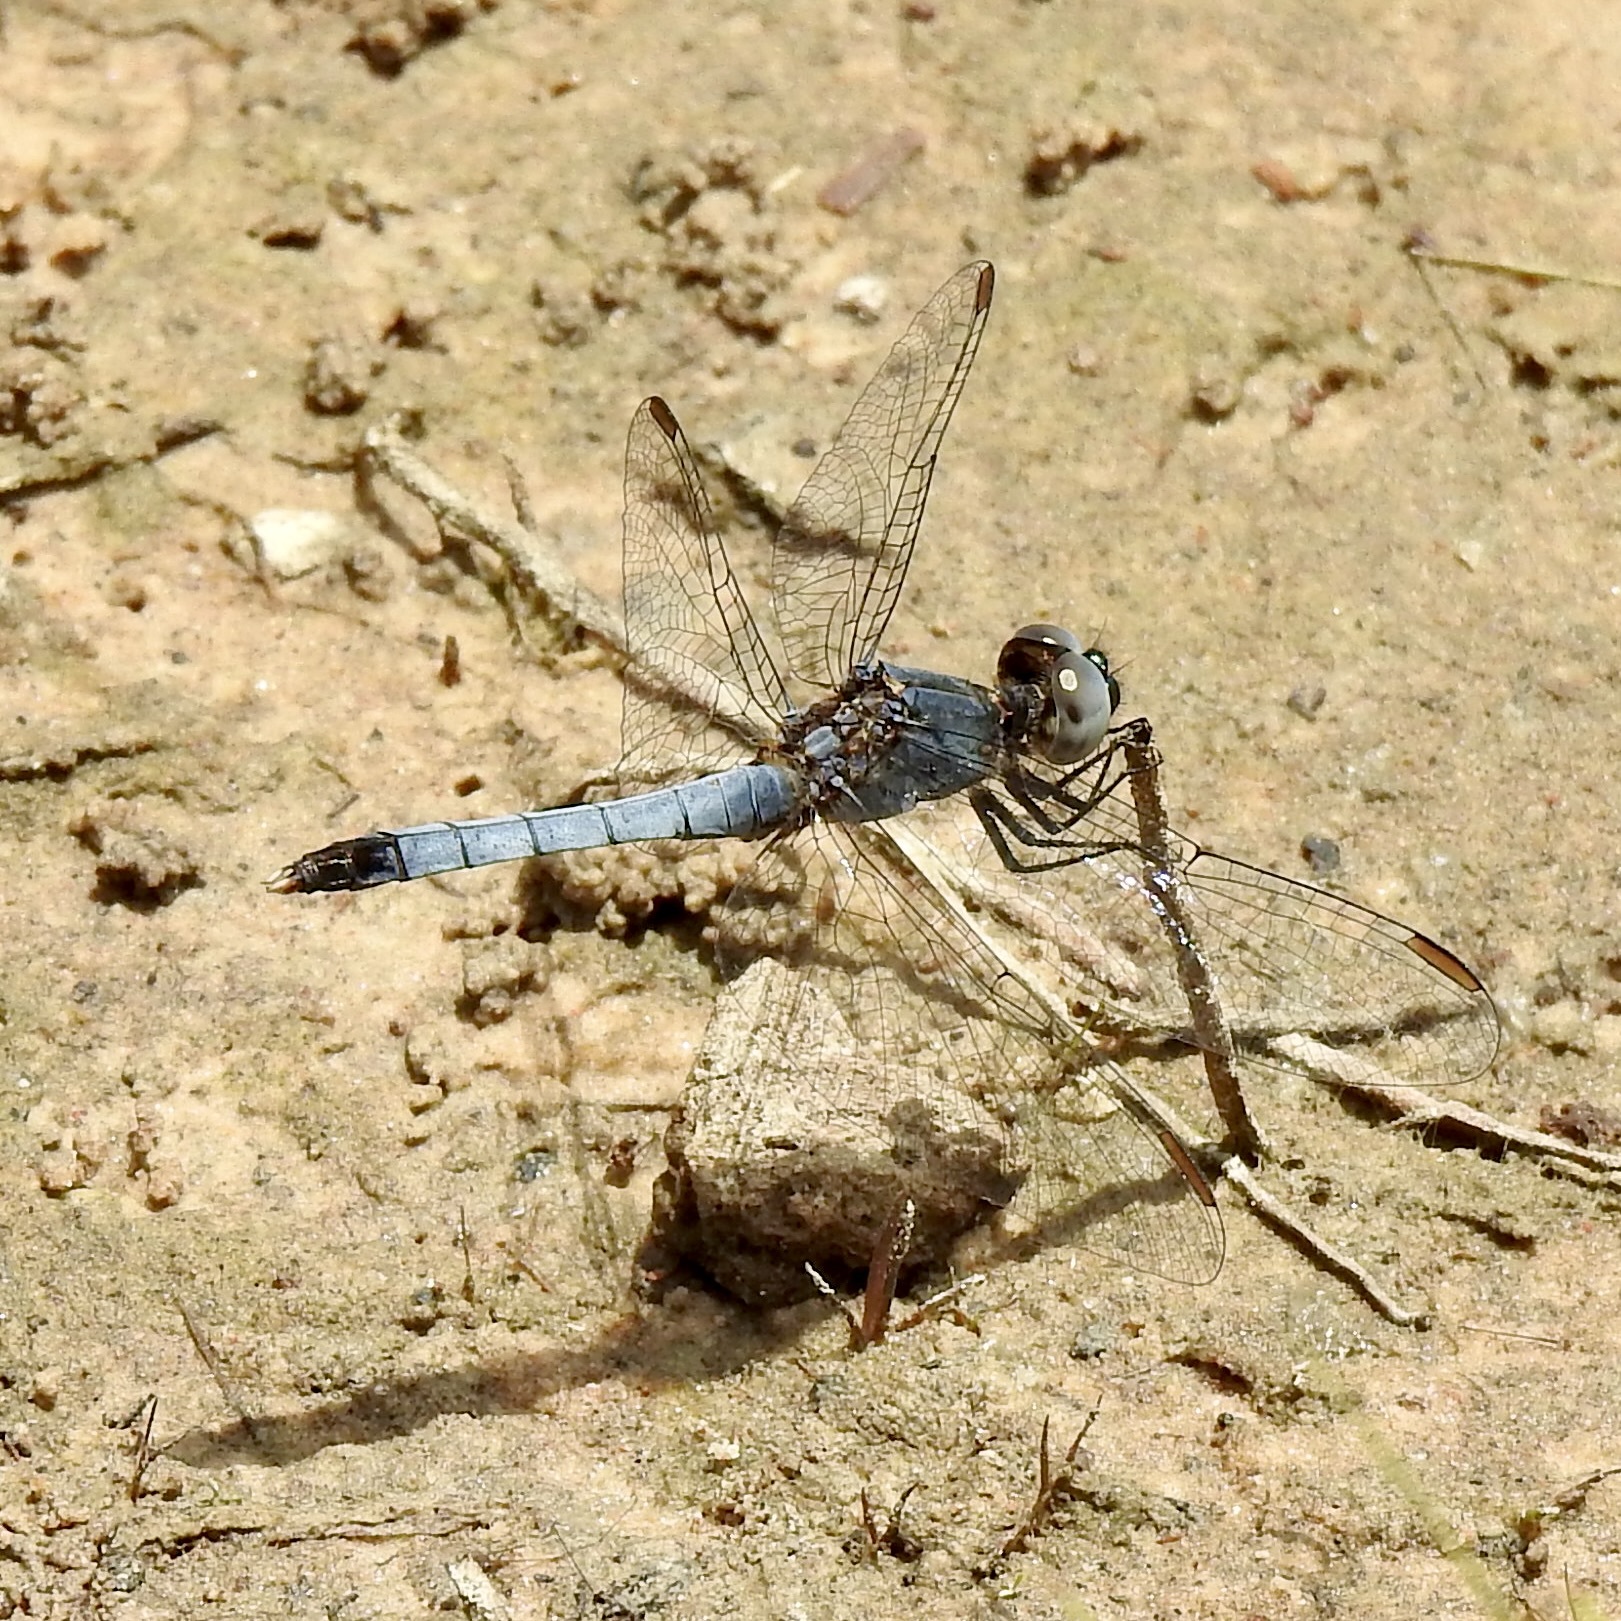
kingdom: Animalia
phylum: Arthropoda
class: Insecta
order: Odonata
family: Libellulidae
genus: Erythrodiplax
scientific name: Erythrodiplax minuscula
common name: Little blue dragonlet
